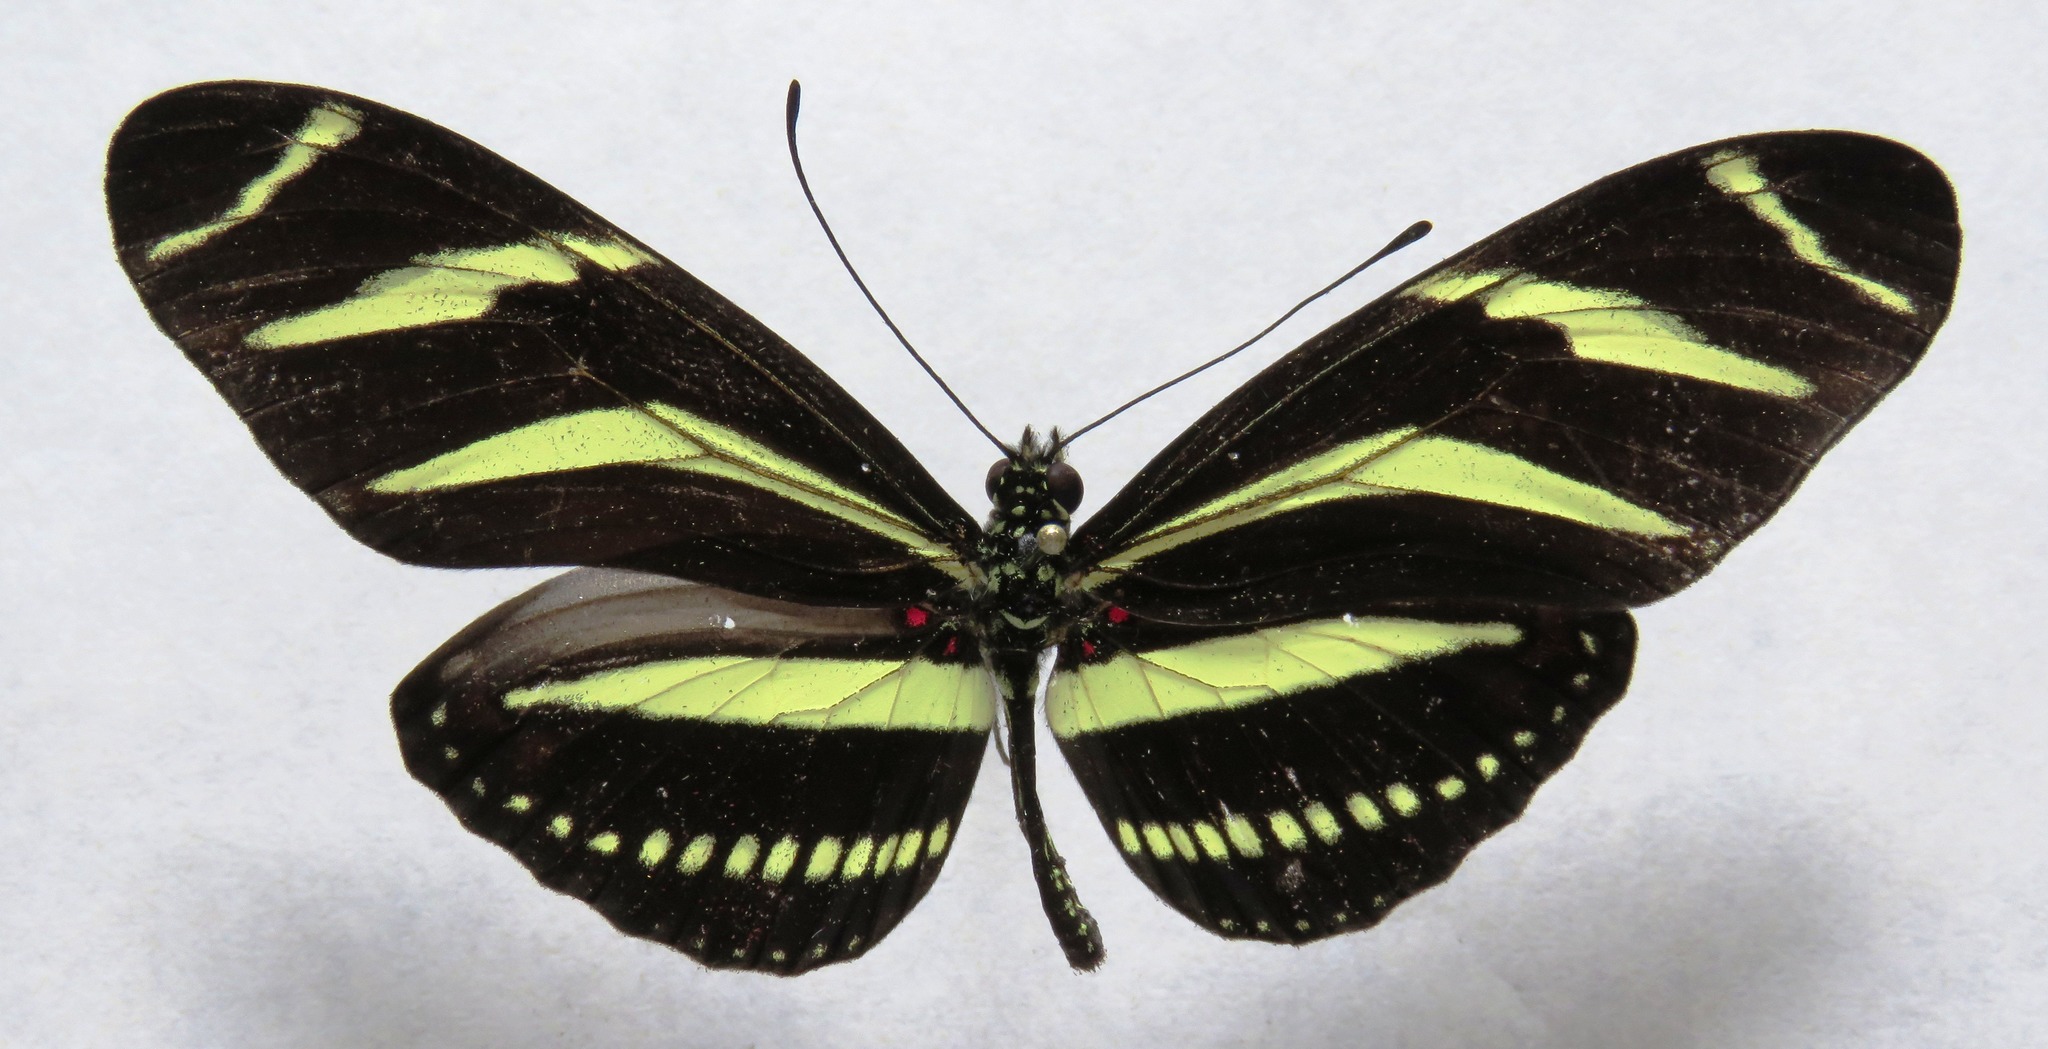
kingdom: Animalia
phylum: Arthropoda
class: Insecta
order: Lepidoptera
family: Nymphalidae
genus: Heliconius
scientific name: Heliconius charithonia
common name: Zebra long wing
